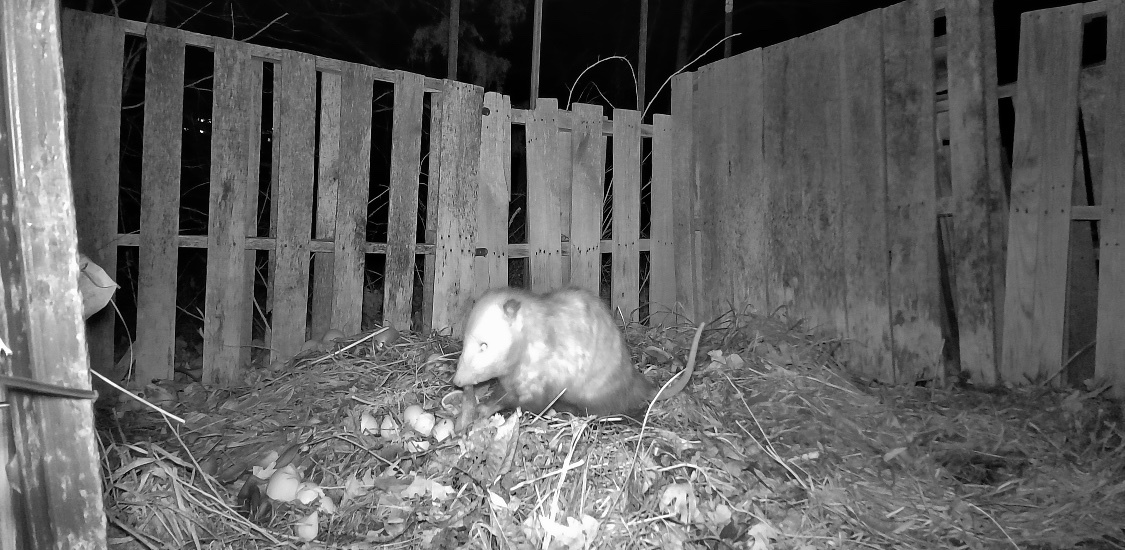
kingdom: Animalia
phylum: Chordata
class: Mammalia
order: Didelphimorphia
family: Didelphidae
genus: Didelphis
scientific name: Didelphis virginiana
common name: Virginia opossum
